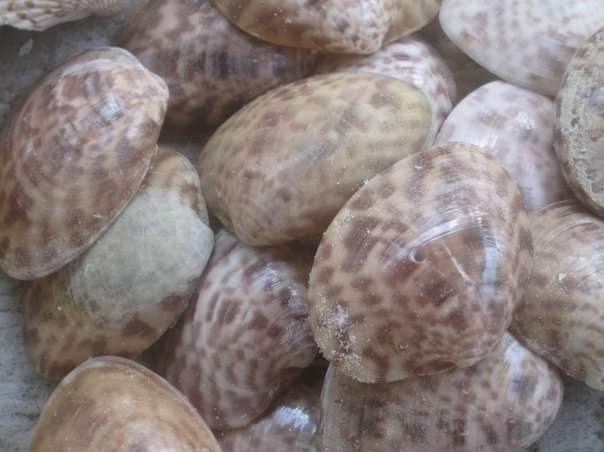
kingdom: Animalia
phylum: Mollusca
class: Bivalvia
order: Venerida
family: Veneridae
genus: Megapitaria
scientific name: Megapitaria maculata
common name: Calico clam
